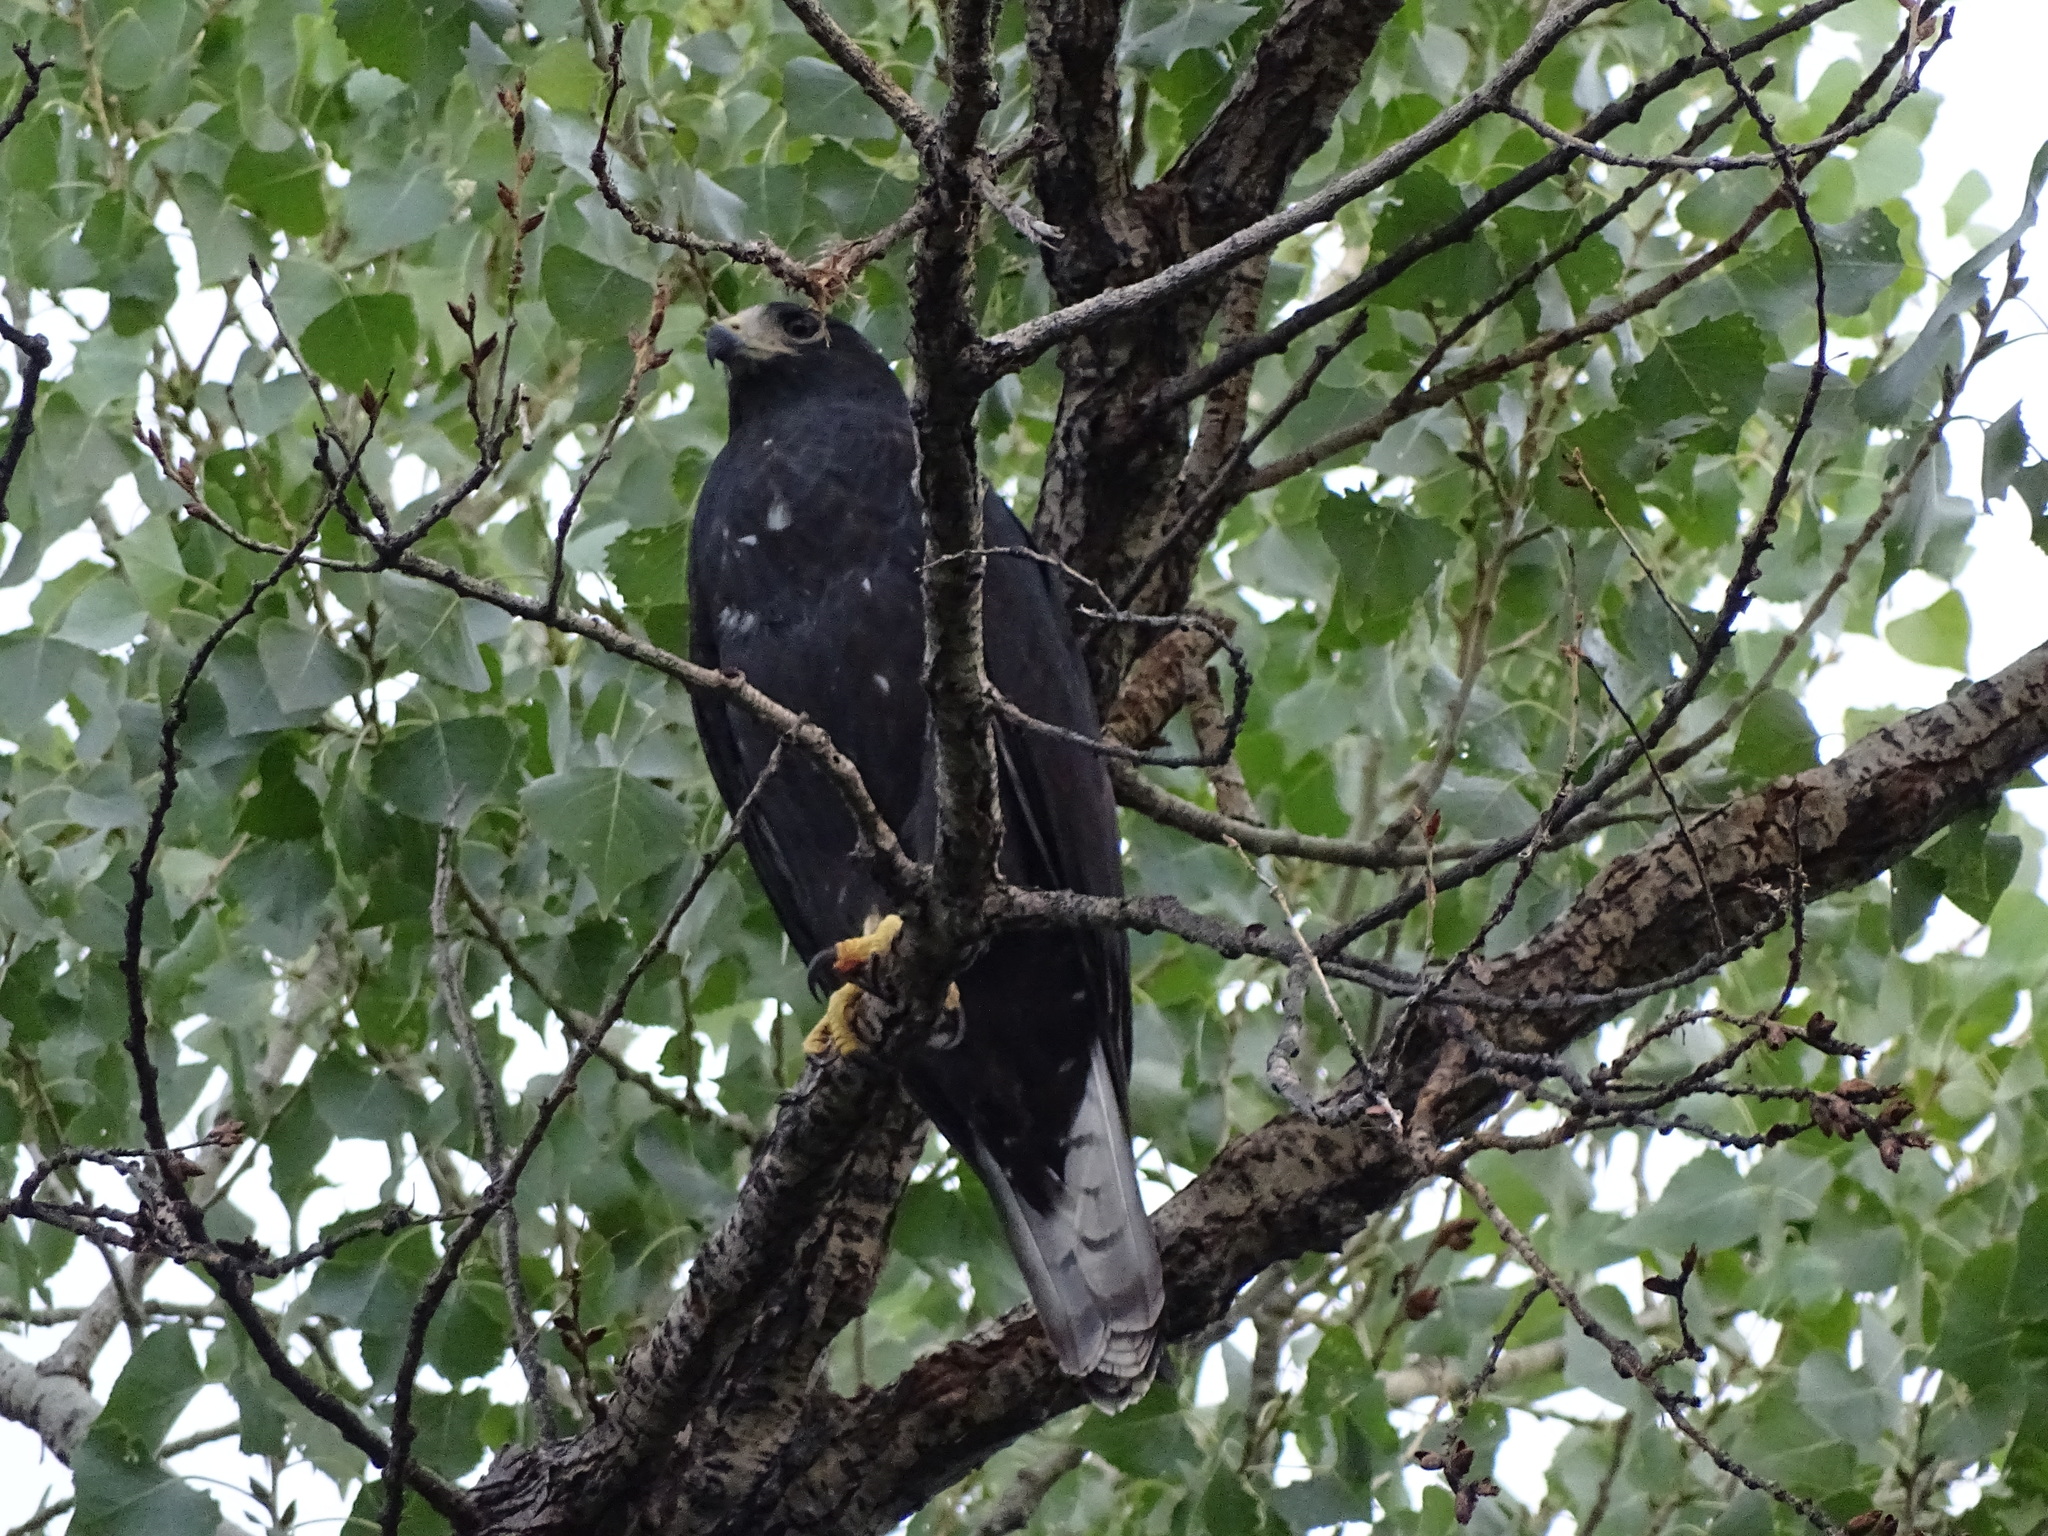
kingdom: Animalia
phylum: Chordata
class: Aves
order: Accipitriformes
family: Accipitridae
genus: Buteo
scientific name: Buteo albonotatus
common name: Zone-tailed hawk
